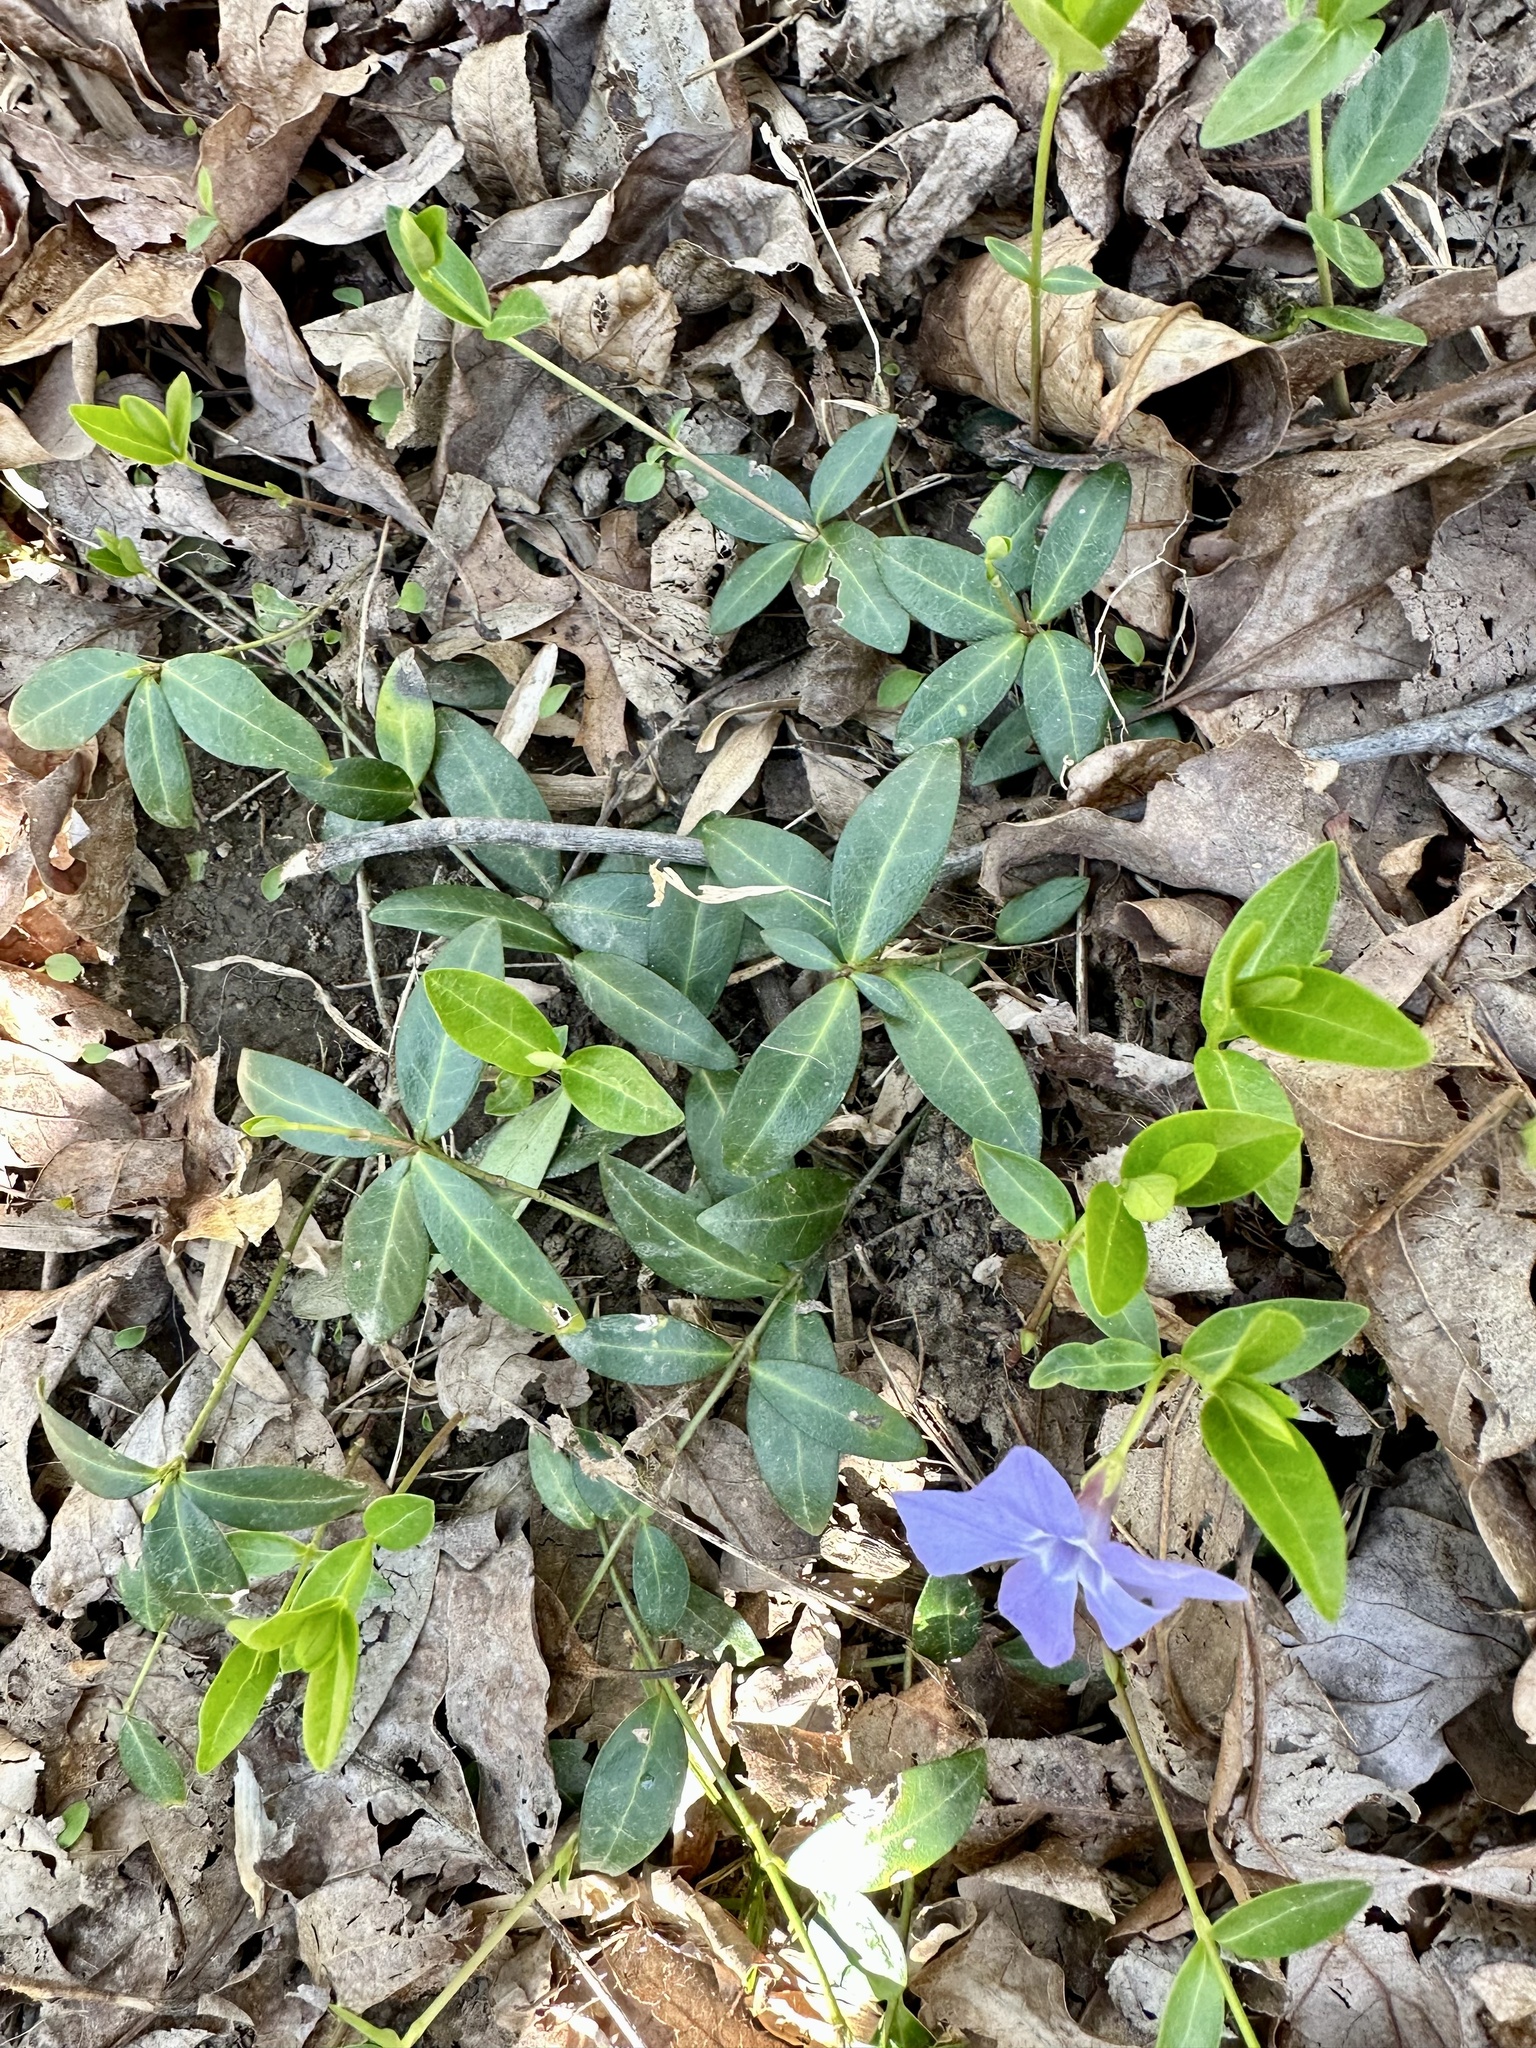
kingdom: Plantae
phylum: Tracheophyta
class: Magnoliopsida
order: Gentianales
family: Apocynaceae
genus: Vinca
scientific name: Vinca minor
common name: Lesser periwinkle
